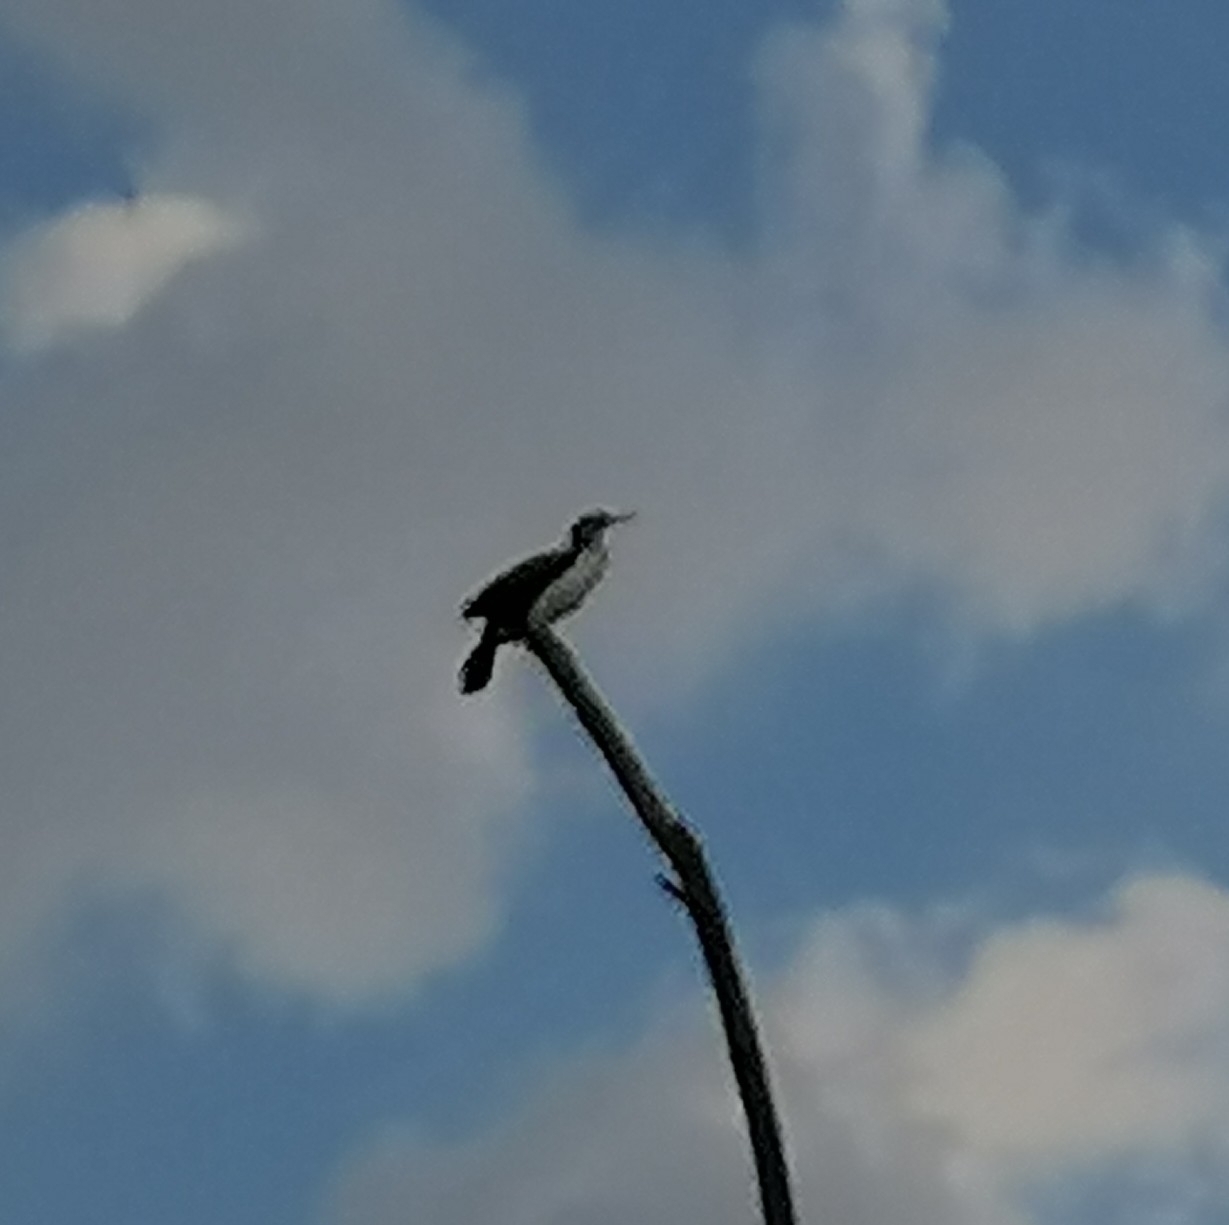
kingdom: Animalia
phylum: Chordata
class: Aves
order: Suliformes
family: Phalacrocoracidae
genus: Phalacrocorax
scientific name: Phalacrocorax carbo
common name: Great cormorant
